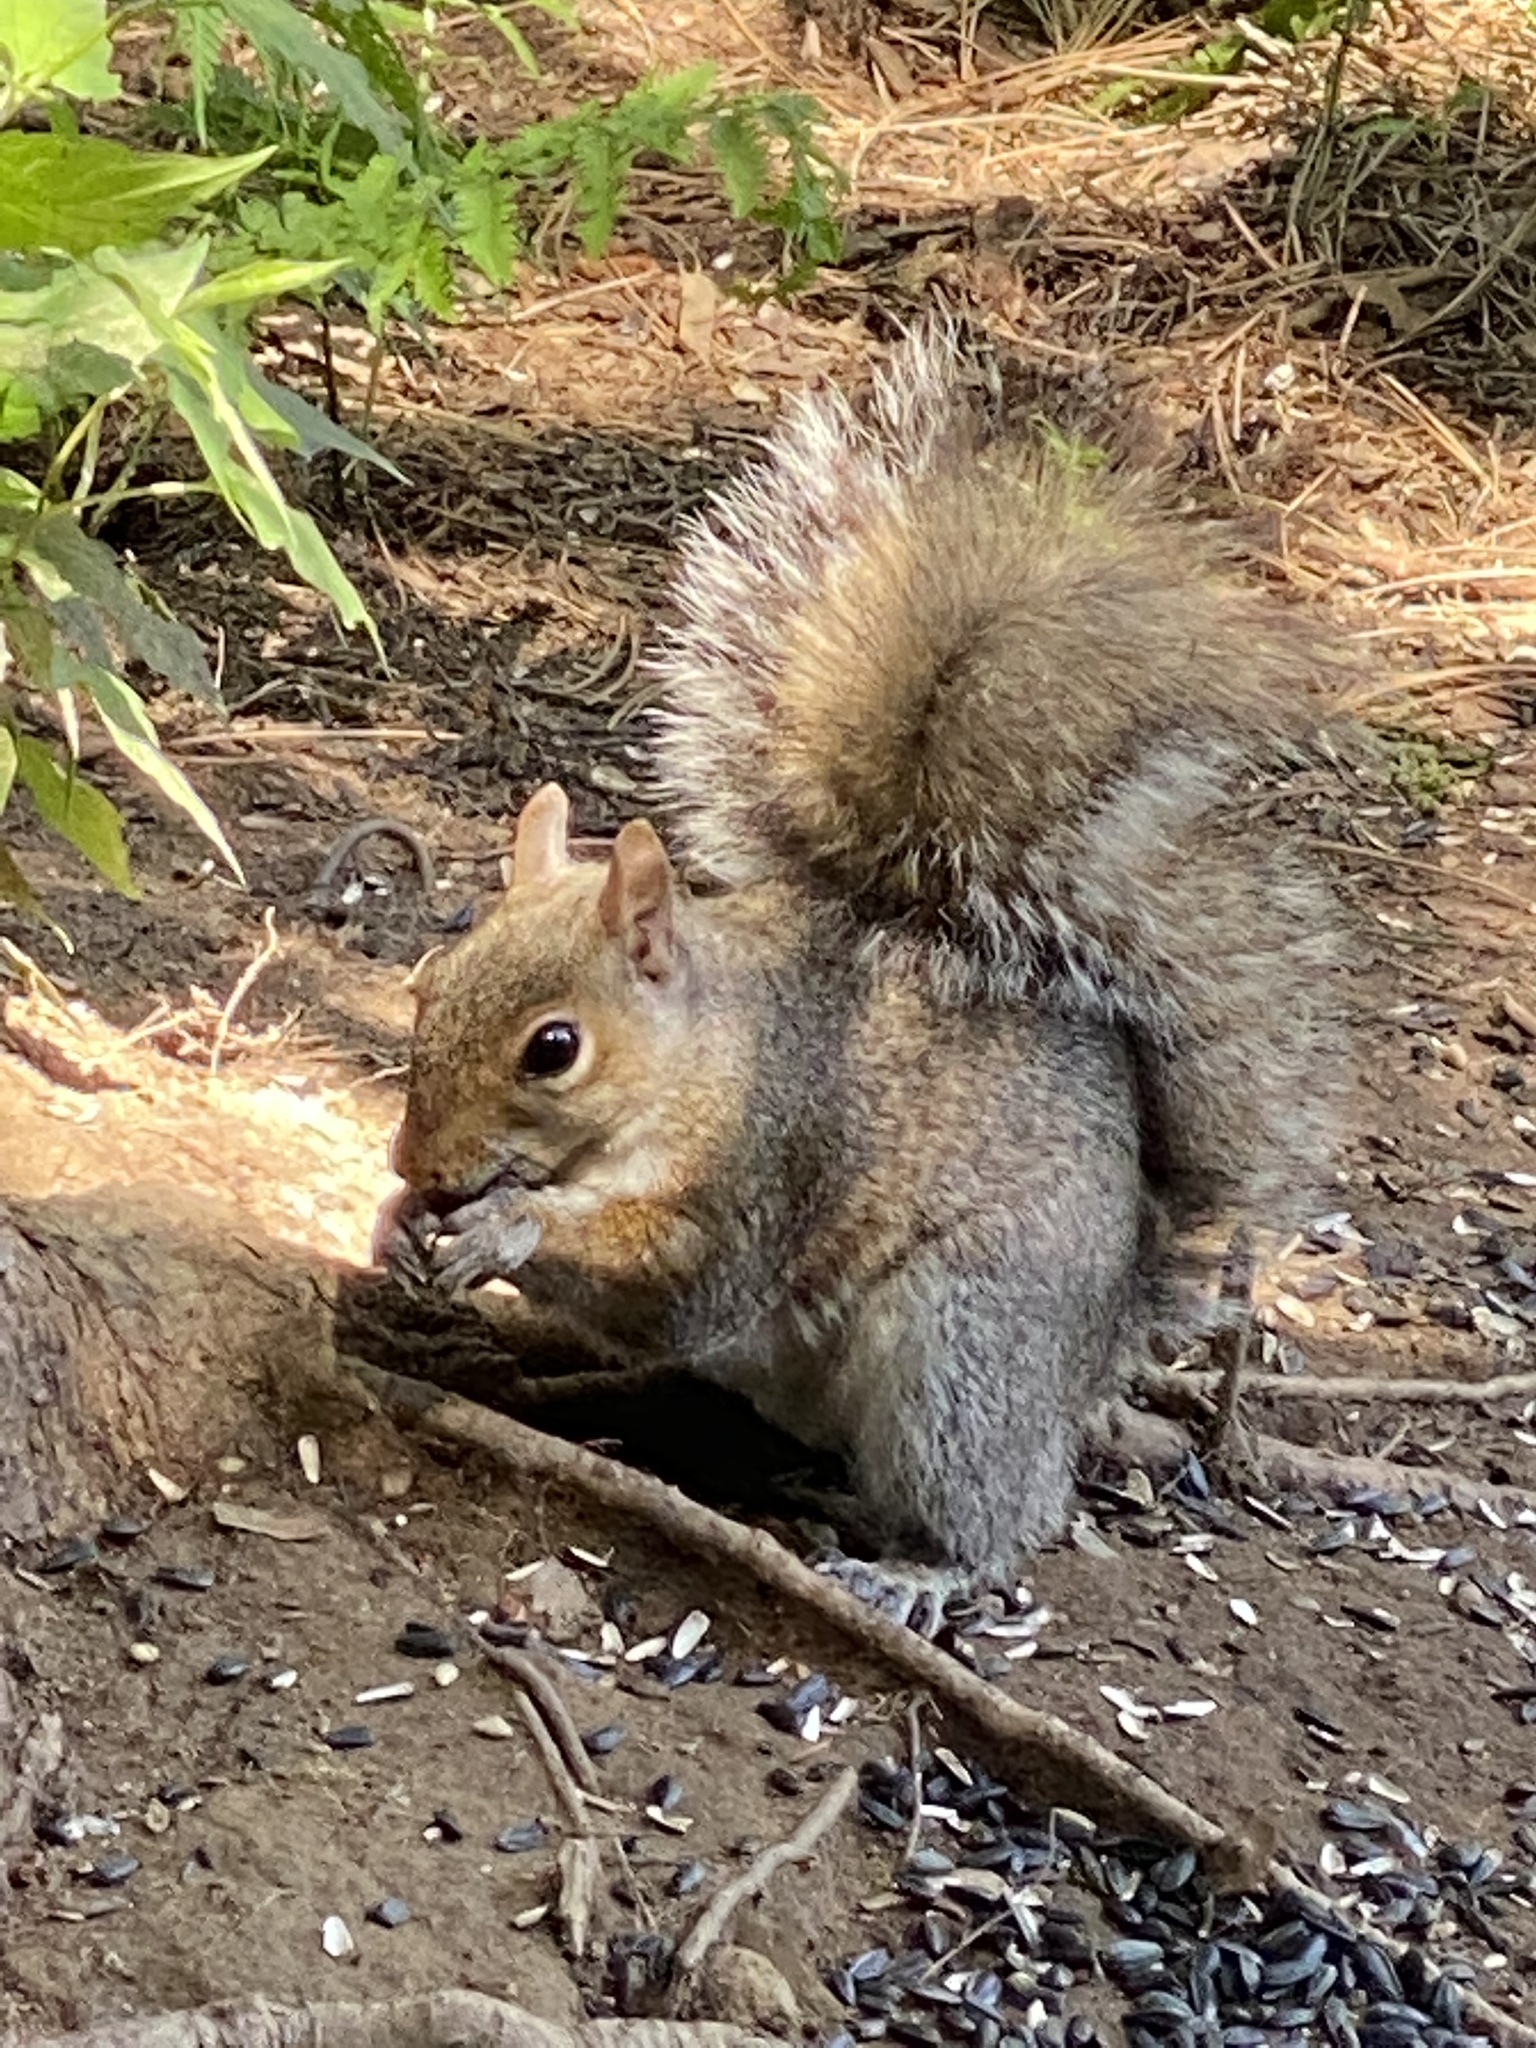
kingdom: Animalia
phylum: Chordata
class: Mammalia
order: Rodentia
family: Sciuridae
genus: Sciurus
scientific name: Sciurus carolinensis
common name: Eastern gray squirrel
